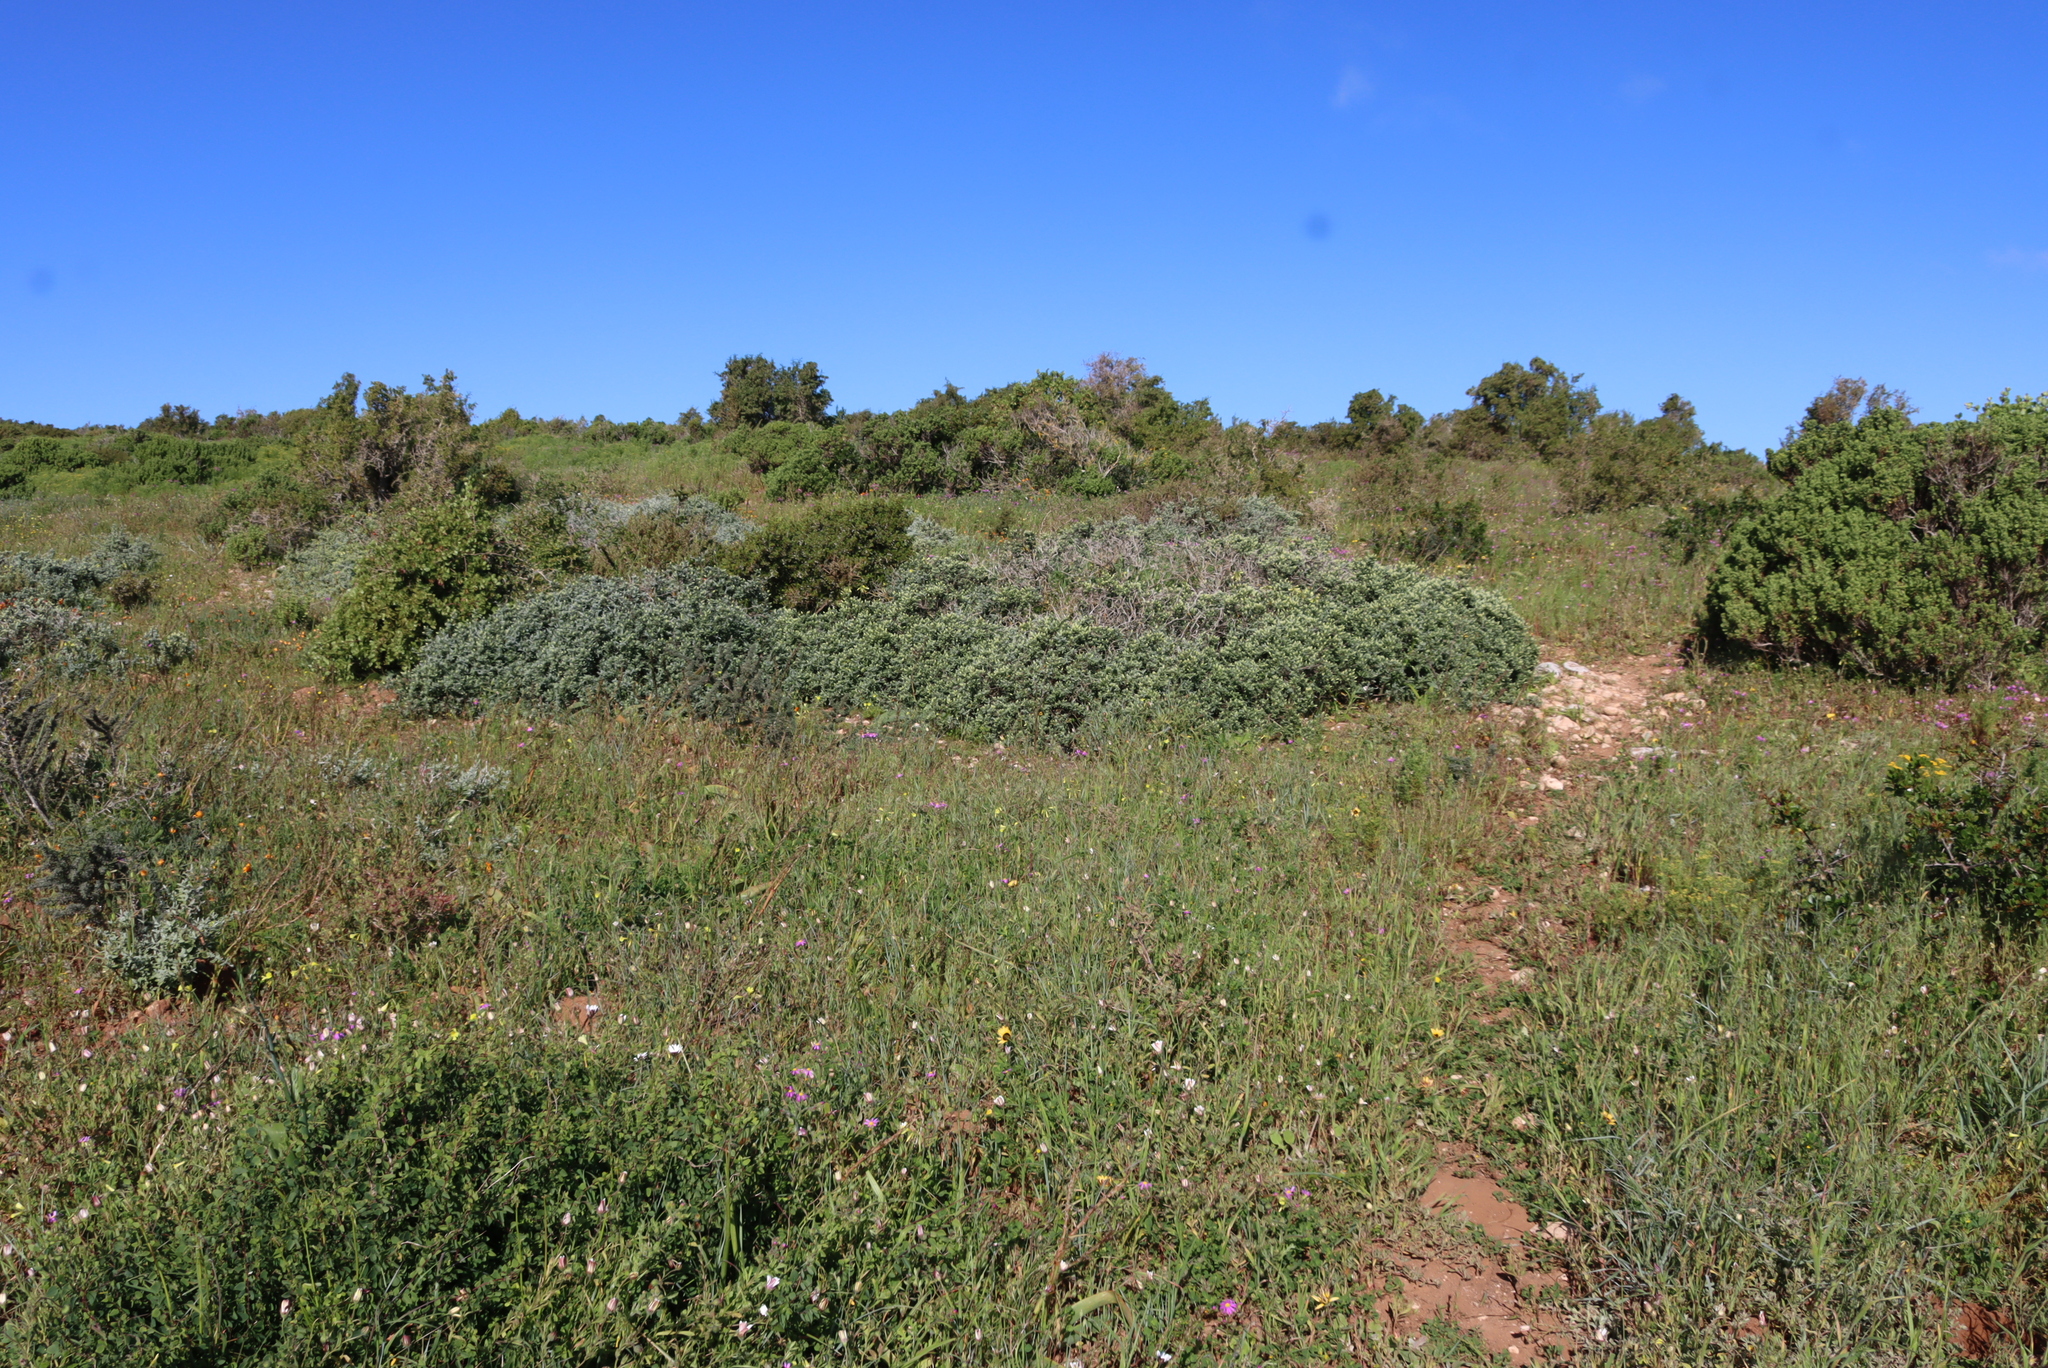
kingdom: Plantae
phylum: Tracheophyta
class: Magnoliopsida
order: Asterales
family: Asteraceae
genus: Pteronia
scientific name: Pteronia ovalifolia
